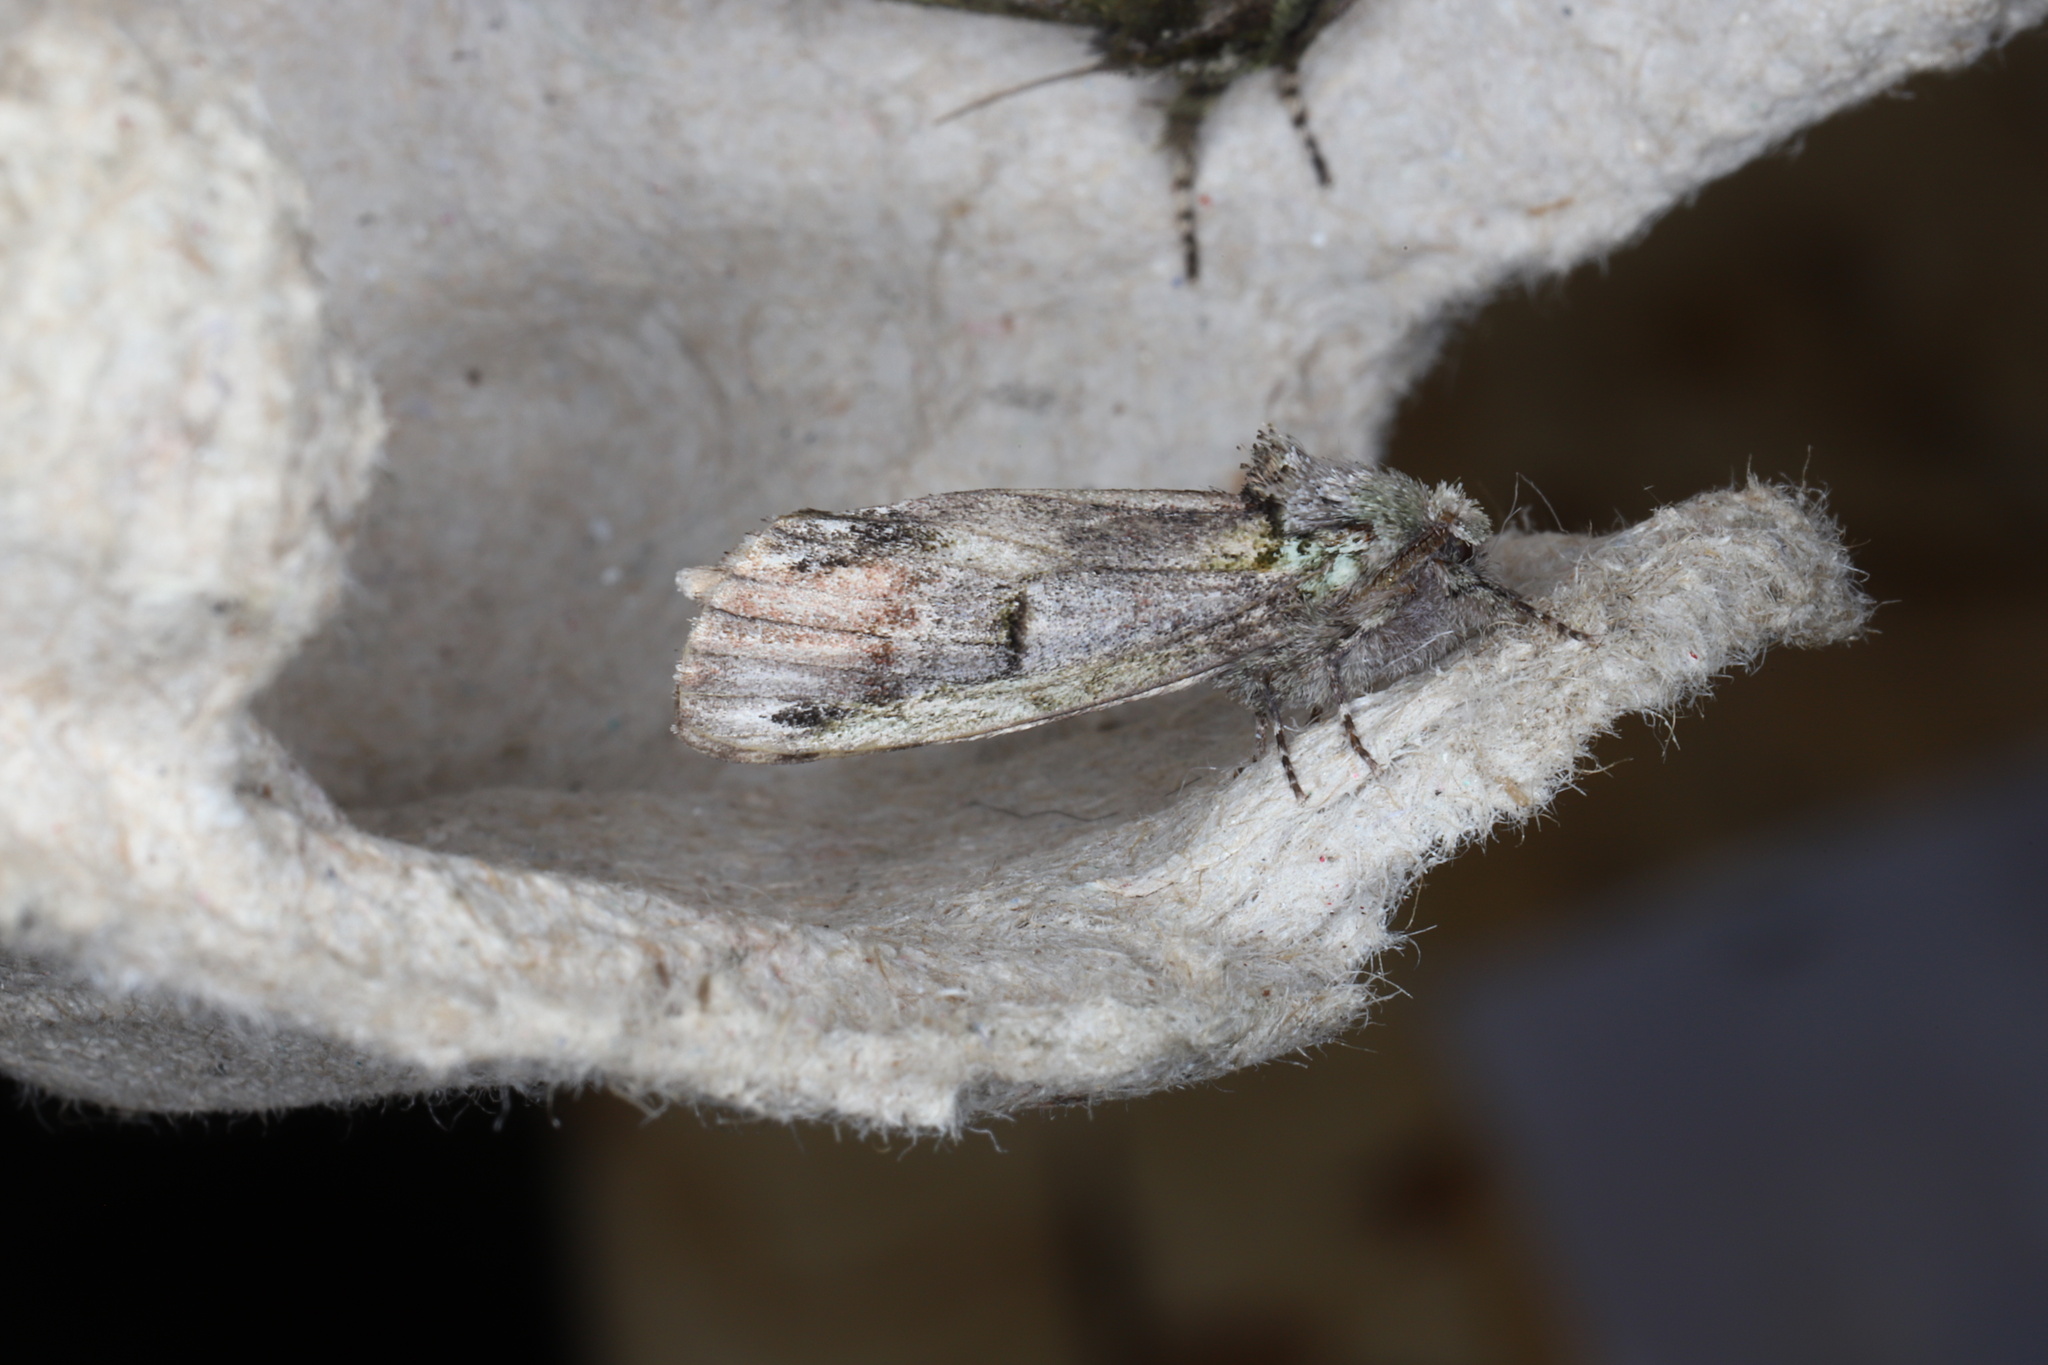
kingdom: Animalia
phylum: Arthropoda
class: Insecta
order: Lepidoptera
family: Notodontidae
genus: Schizura
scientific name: Schizura
